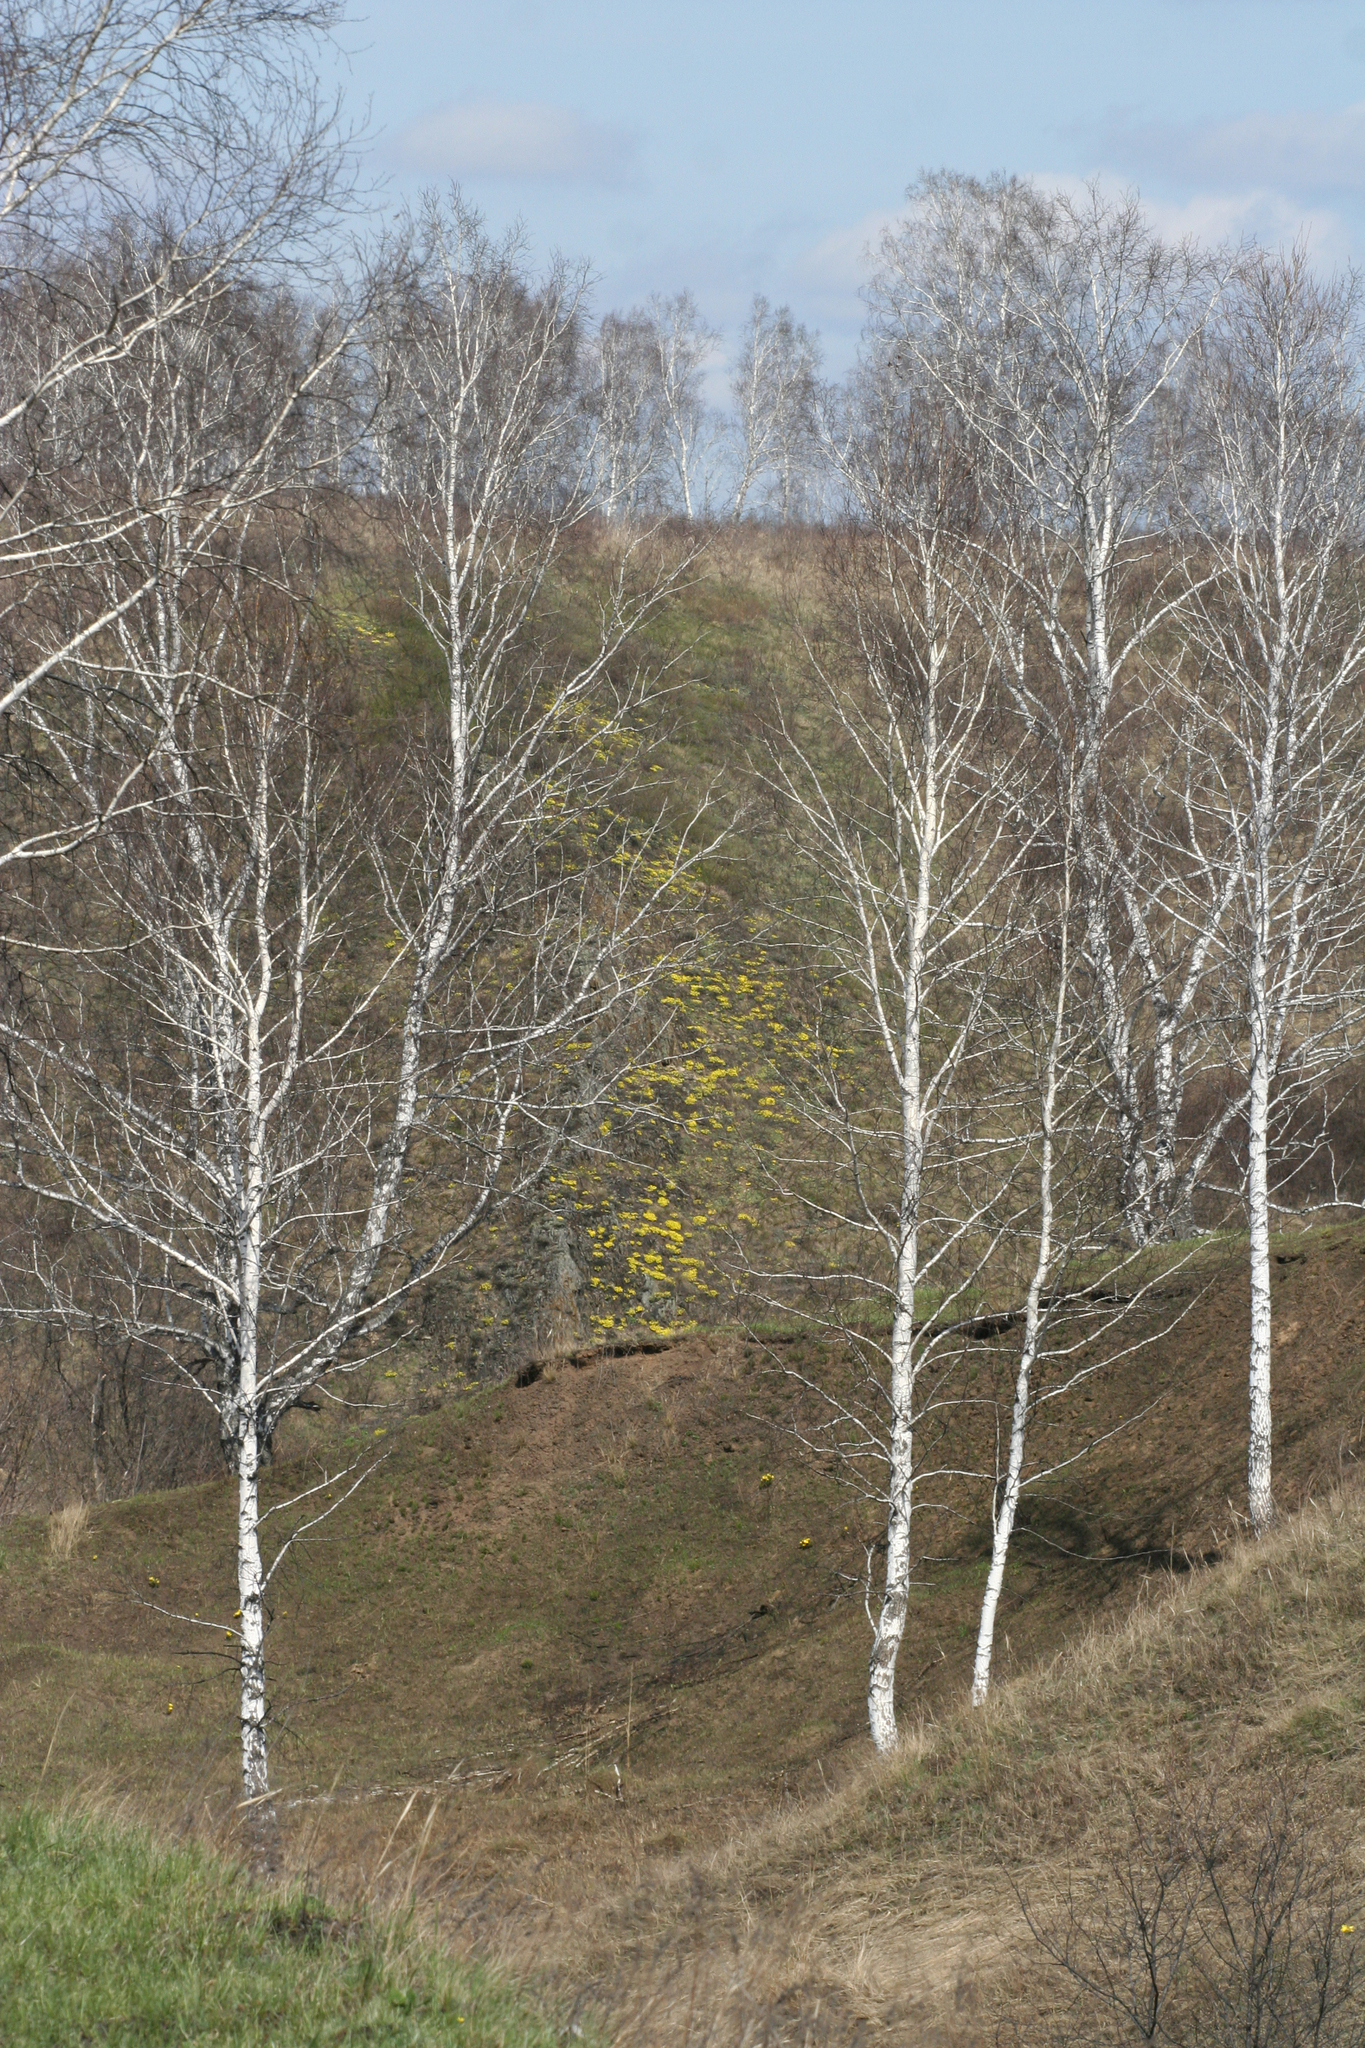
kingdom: Plantae
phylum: Tracheophyta
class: Magnoliopsida
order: Fagales
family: Betulaceae
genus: Betula
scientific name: Betula pendula
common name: Silver birch
